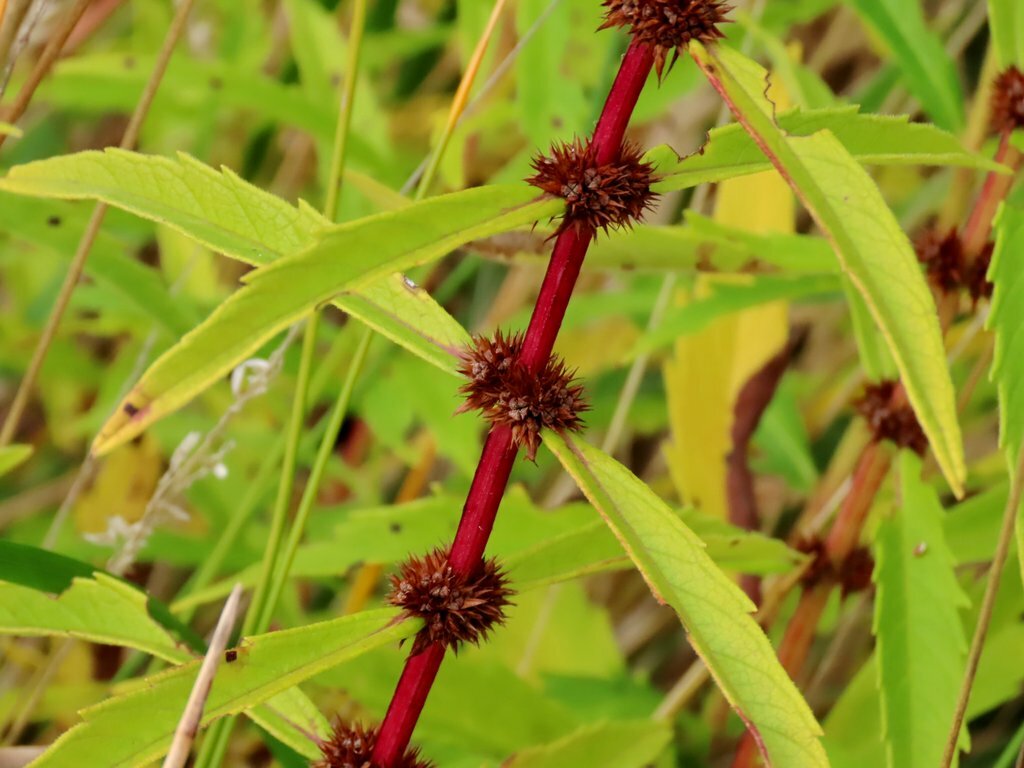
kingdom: Plantae
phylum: Tracheophyta
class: Magnoliopsida
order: Lamiales
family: Lamiaceae
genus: Lycopus
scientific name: Lycopus australis
